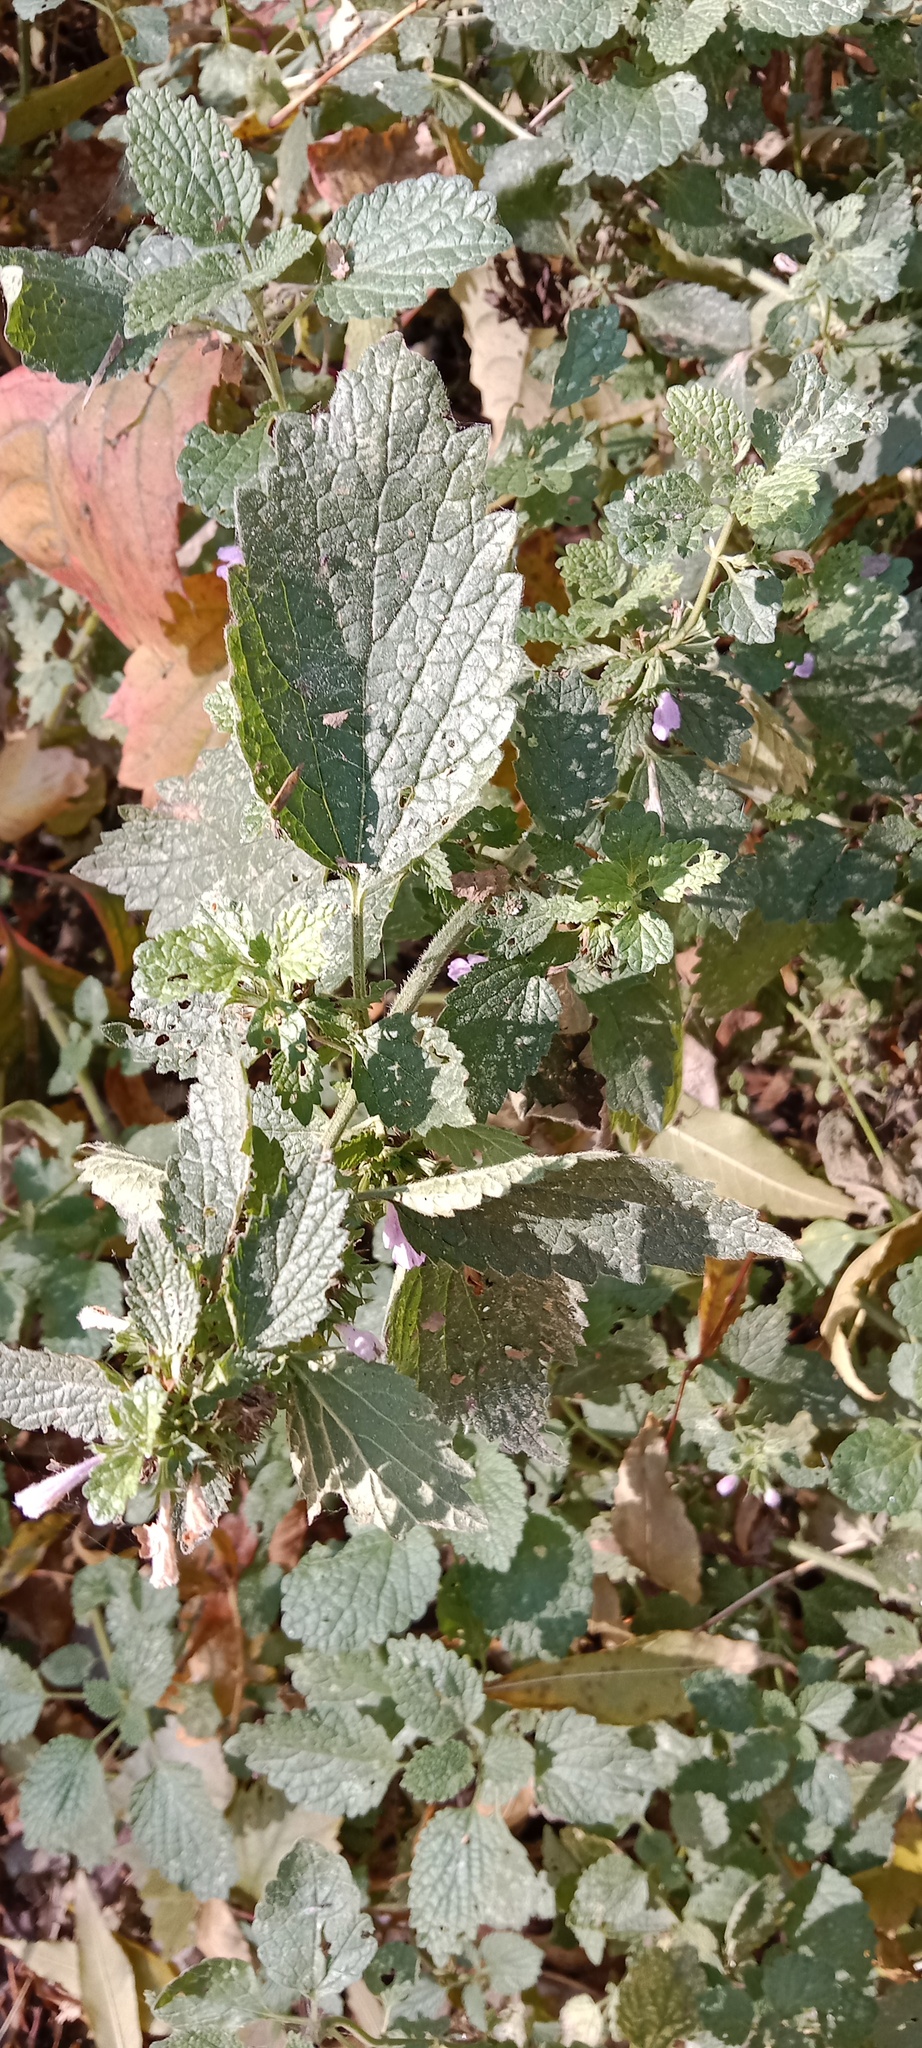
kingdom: Plantae
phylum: Tracheophyta
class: Magnoliopsida
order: Lamiales
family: Lamiaceae
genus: Ballota
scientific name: Ballota nigra
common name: Black horehound
